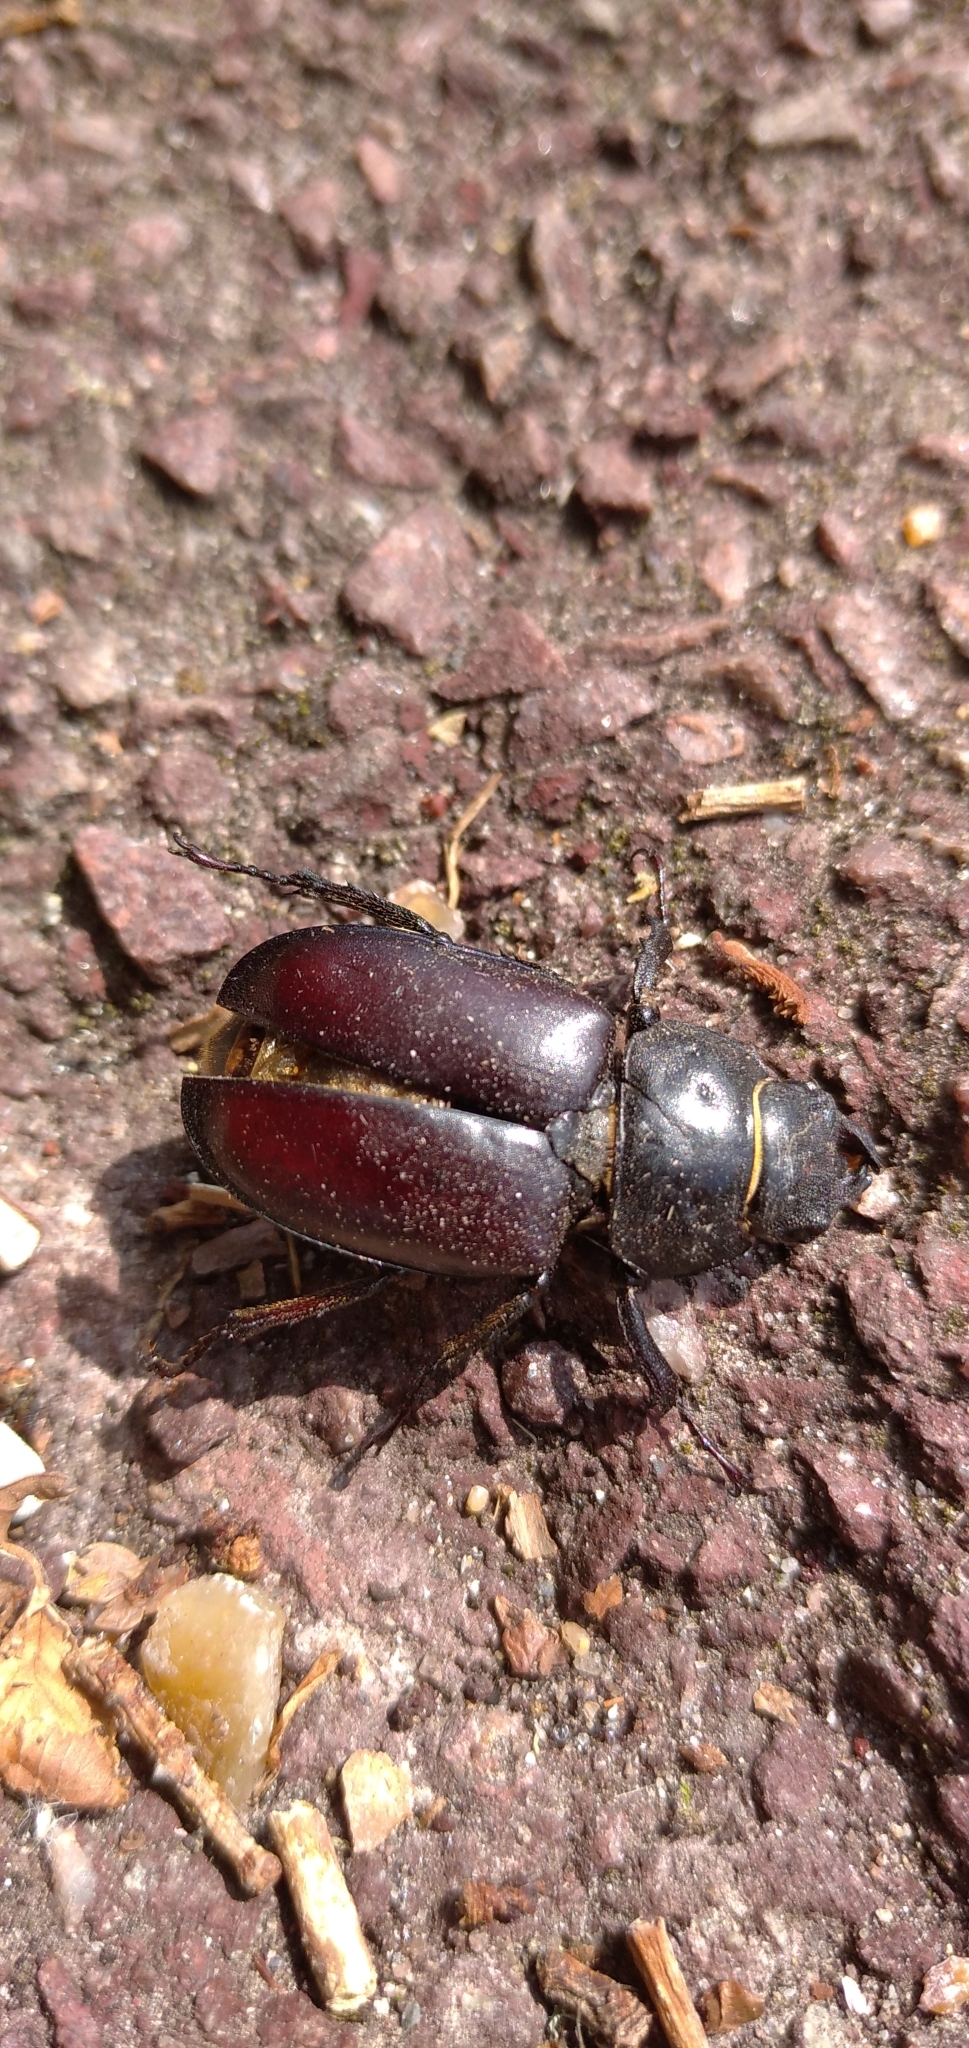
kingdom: Animalia
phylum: Arthropoda
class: Insecta
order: Coleoptera
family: Lucanidae
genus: Lucanus
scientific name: Lucanus cervus
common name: Stag beetle
